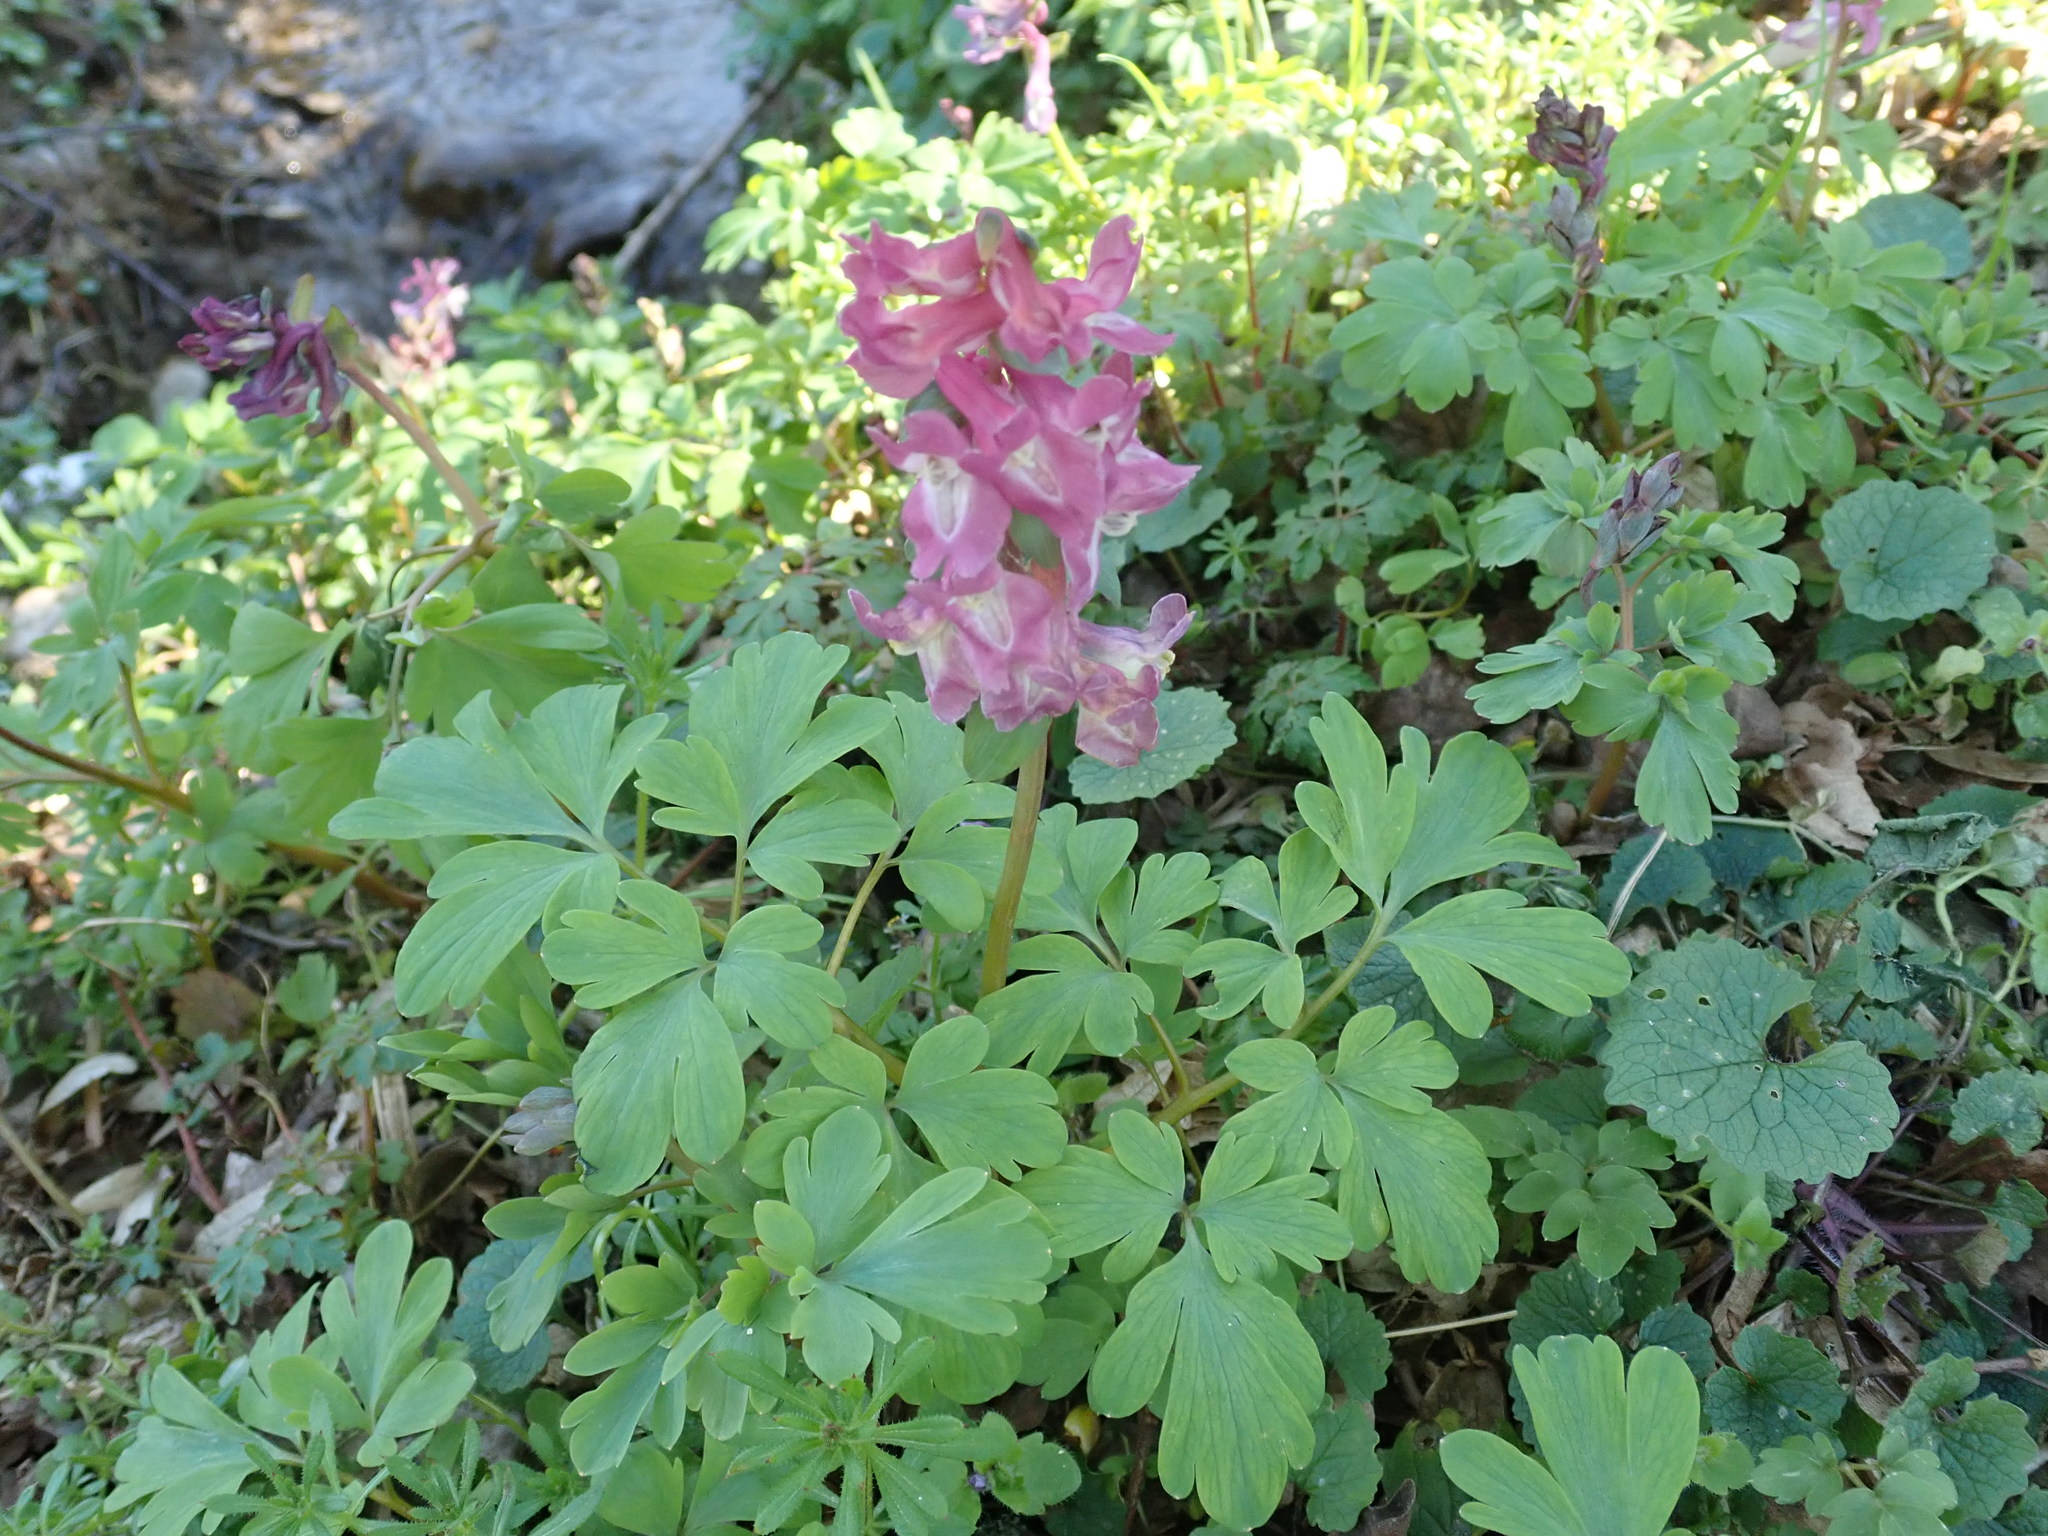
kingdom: Plantae
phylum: Tracheophyta
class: Magnoliopsida
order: Ranunculales
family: Papaveraceae
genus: Corydalis
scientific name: Corydalis cava
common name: Hollowroot
